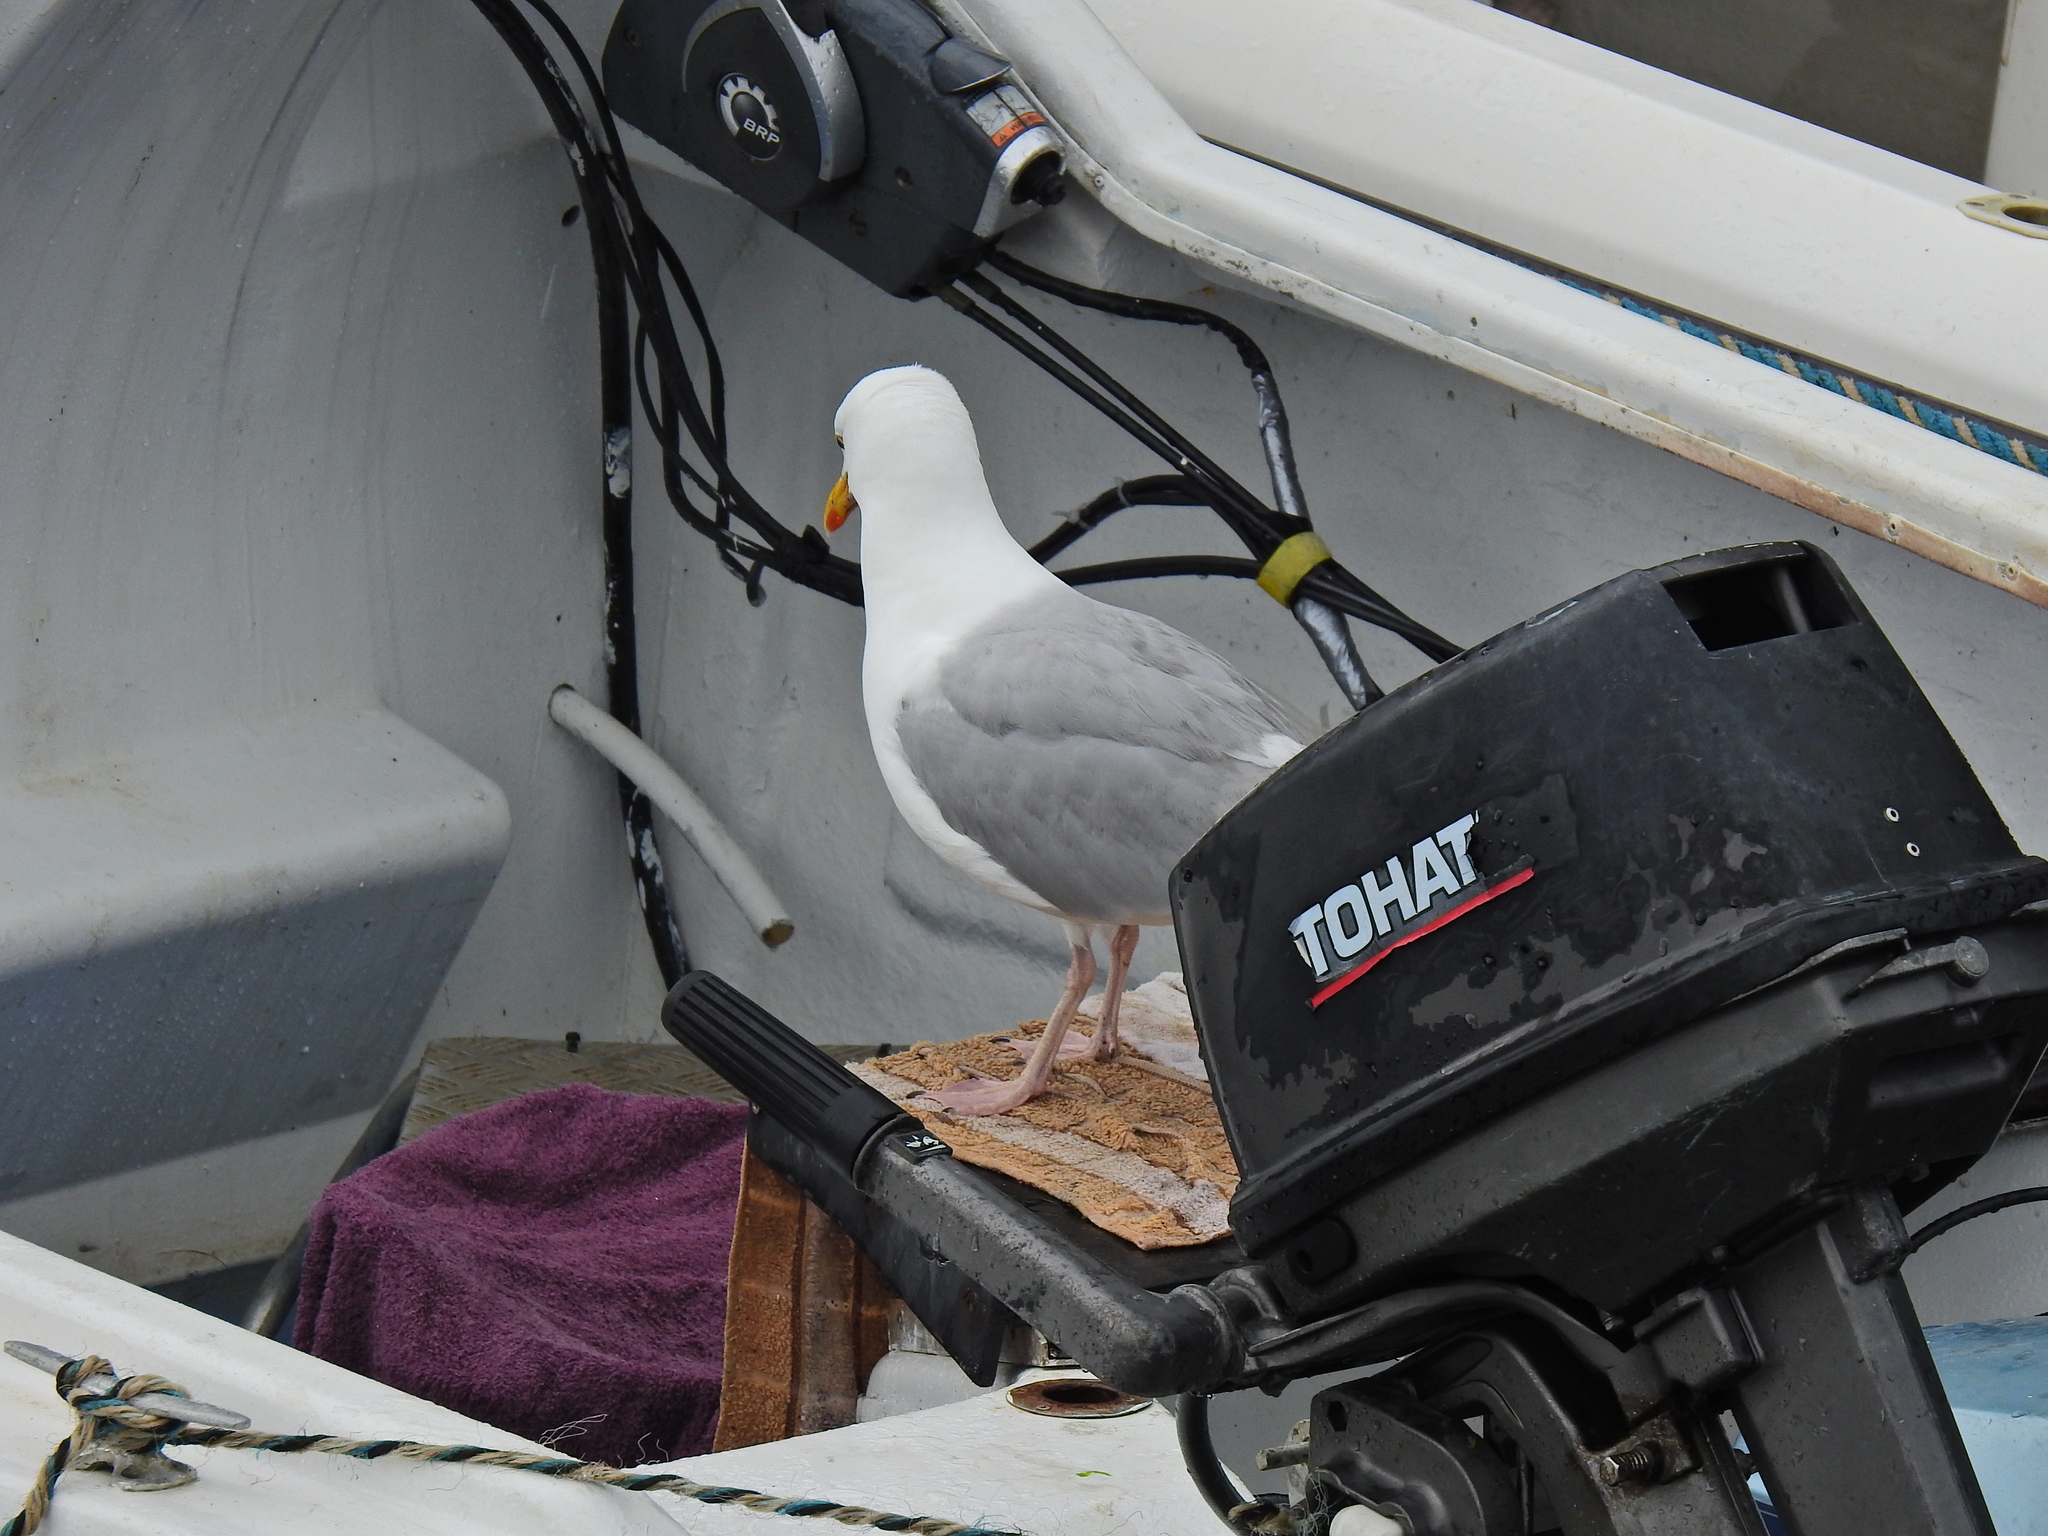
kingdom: Animalia
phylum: Chordata
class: Aves
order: Charadriiformes
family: Laridae
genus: Larus
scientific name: Larus argentatus
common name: Herring gull
